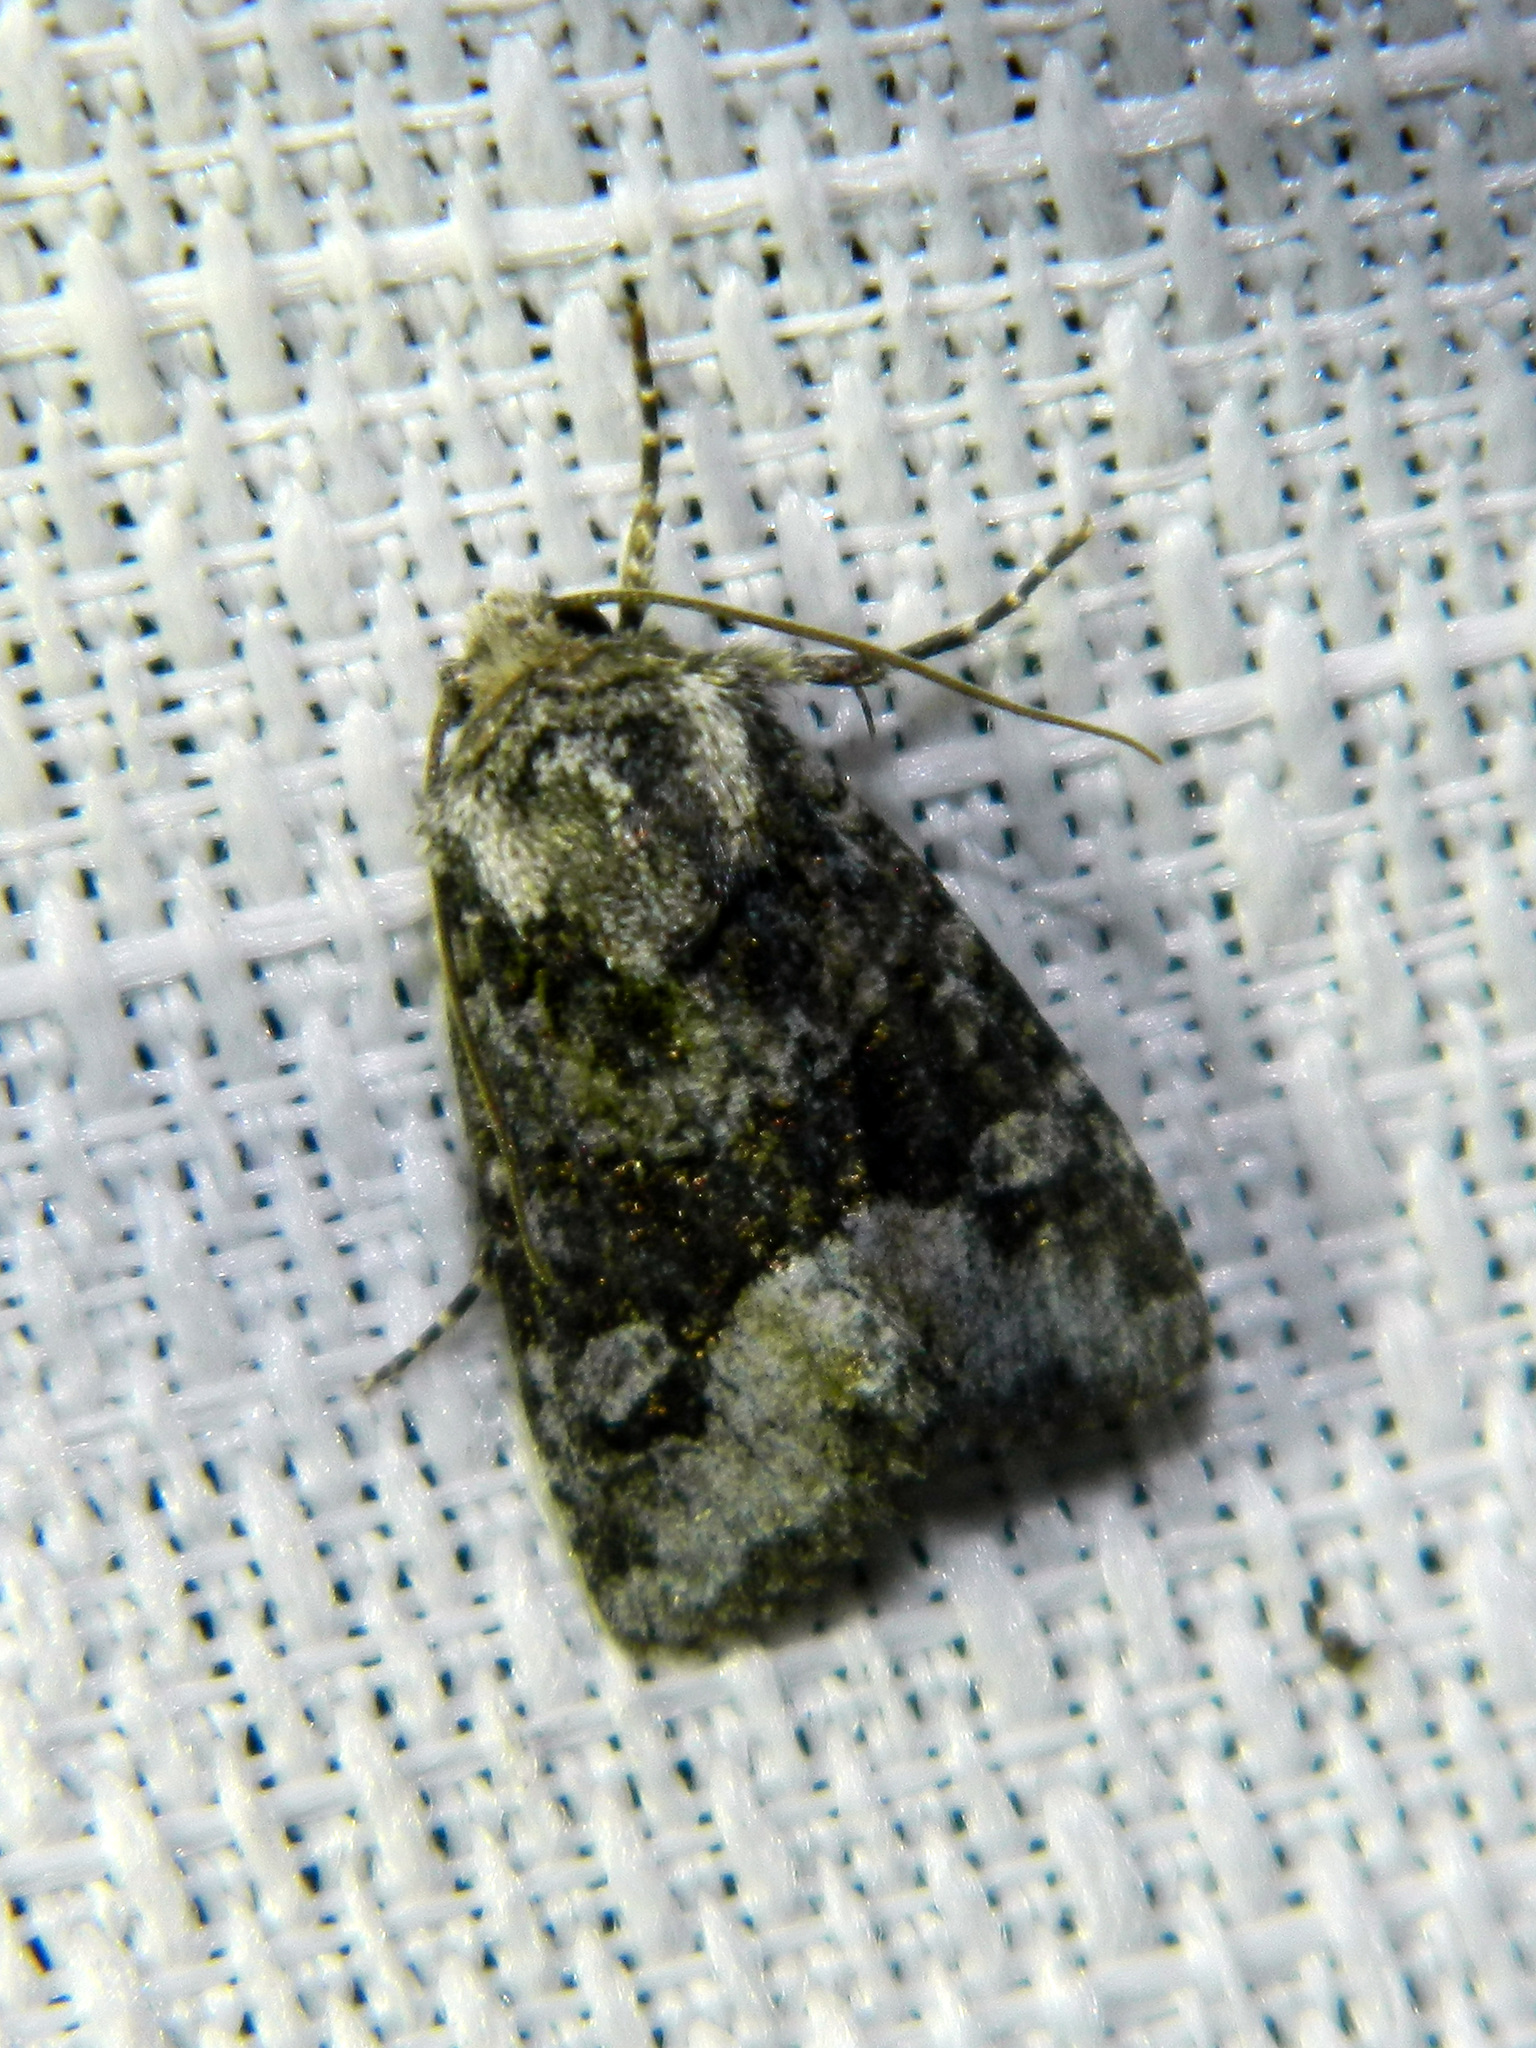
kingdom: Animalia
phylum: Arthropoda
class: Insecta
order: Lepidoptera
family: Noctuidae
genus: Lacinipolia
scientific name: Lacinipolia olivacea
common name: Olive arches moth
